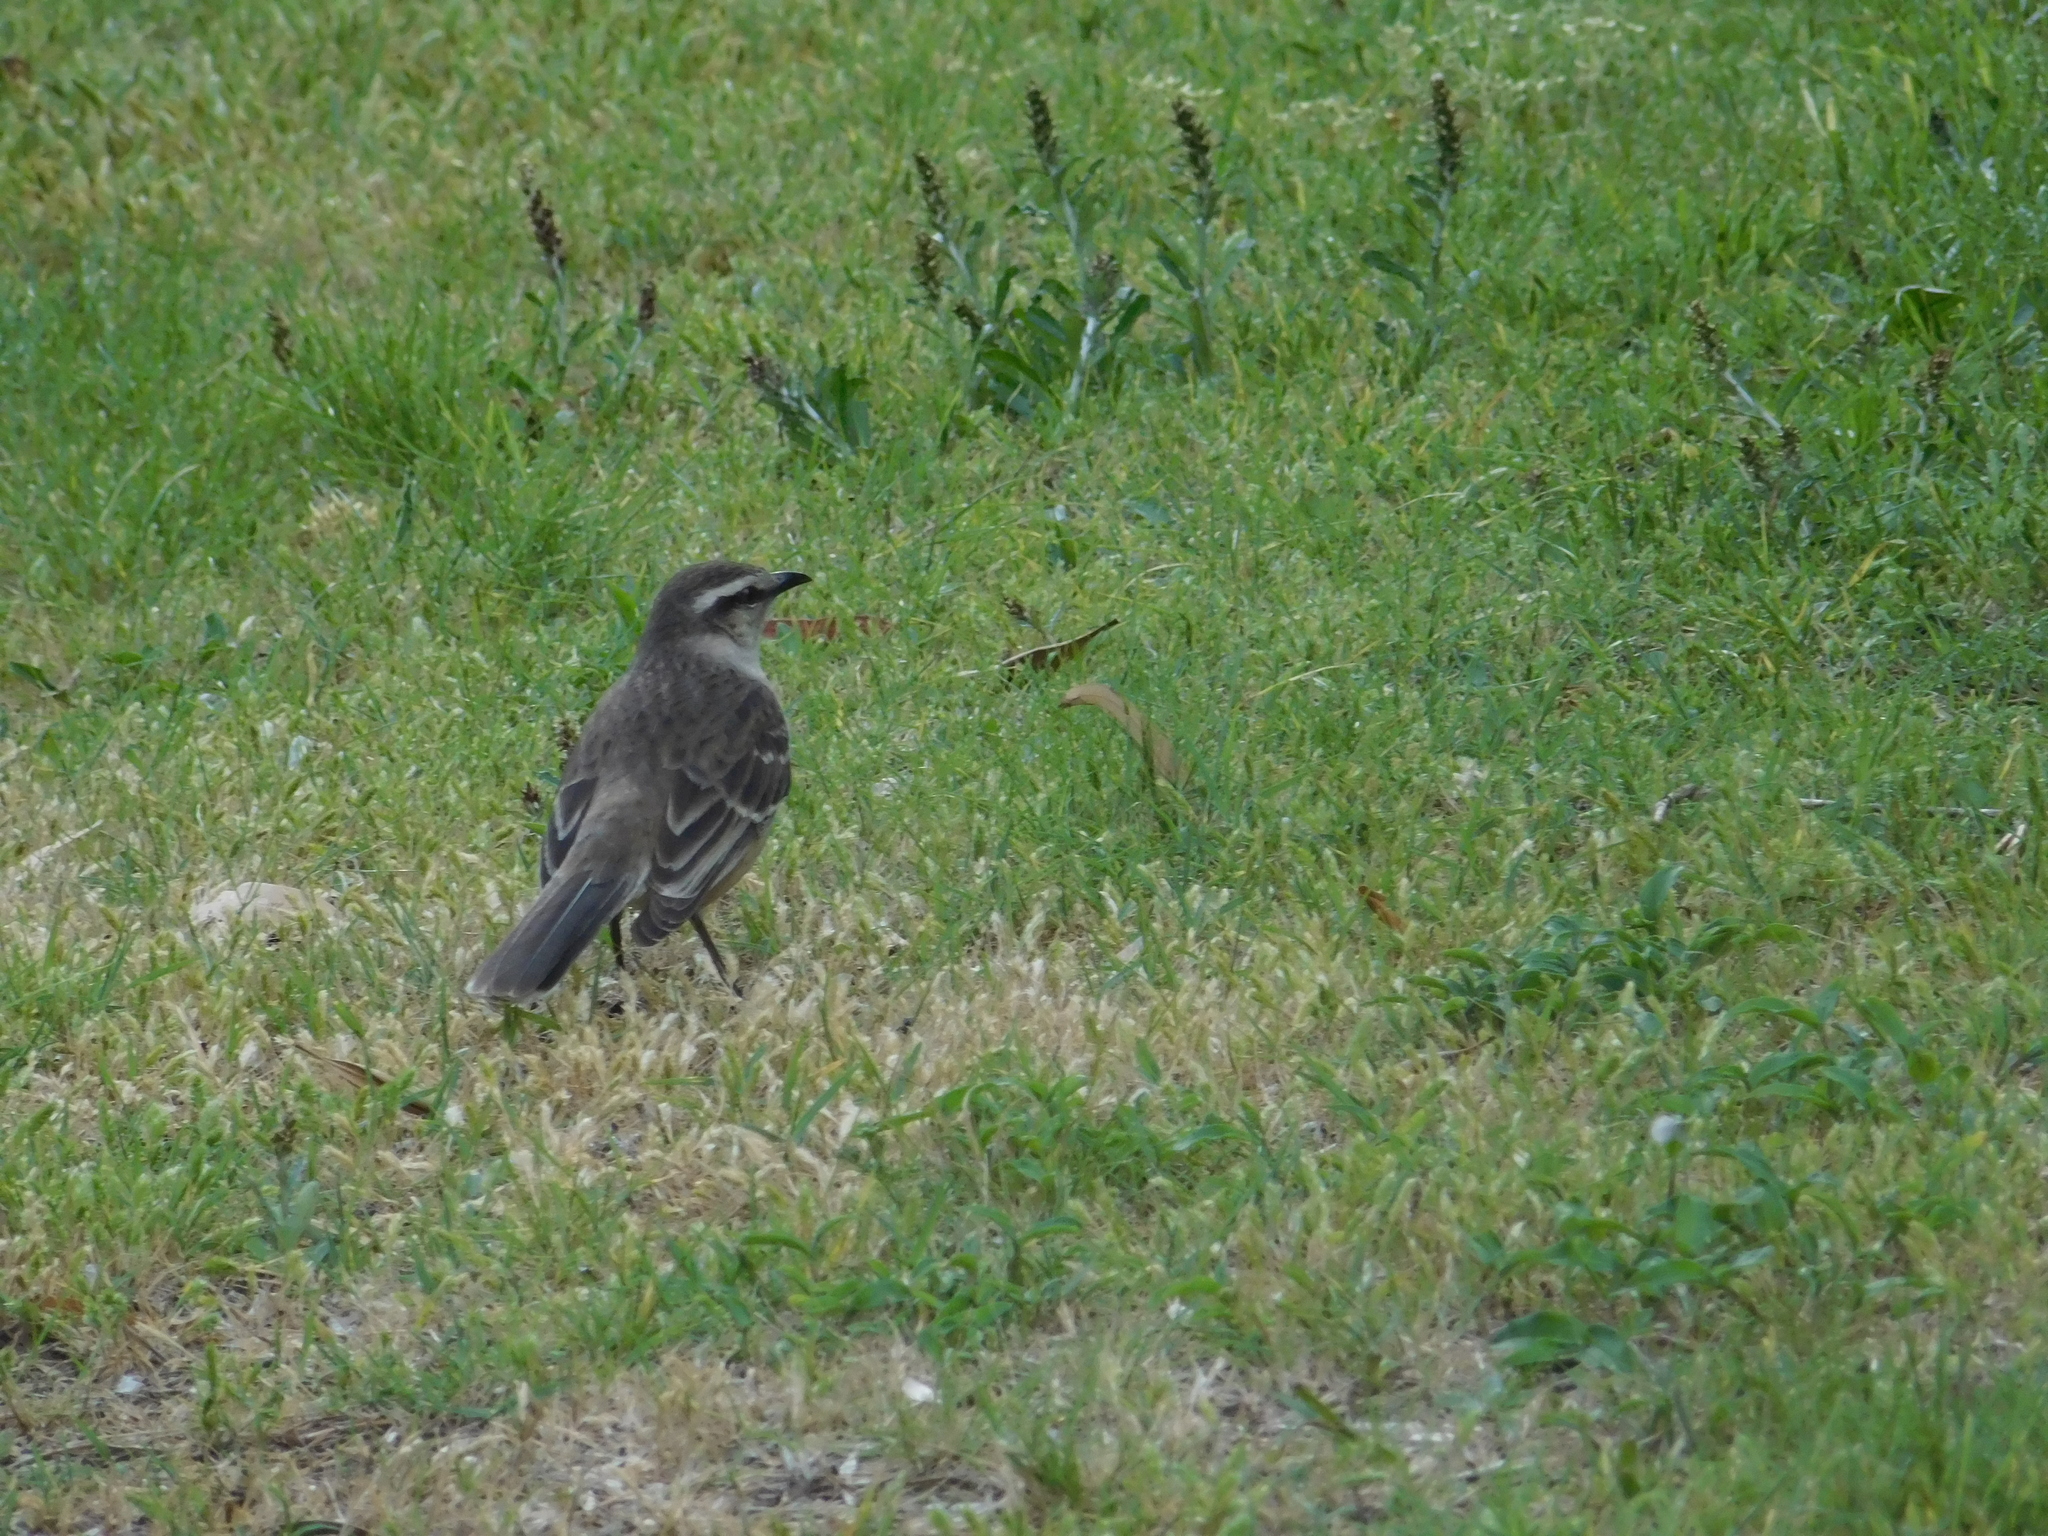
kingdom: Animalia
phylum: Chordata
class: Aves
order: Passeriformes
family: Mimidae
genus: Mimus
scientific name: Mimus saturninus
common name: Chalk-browed mockingbird
